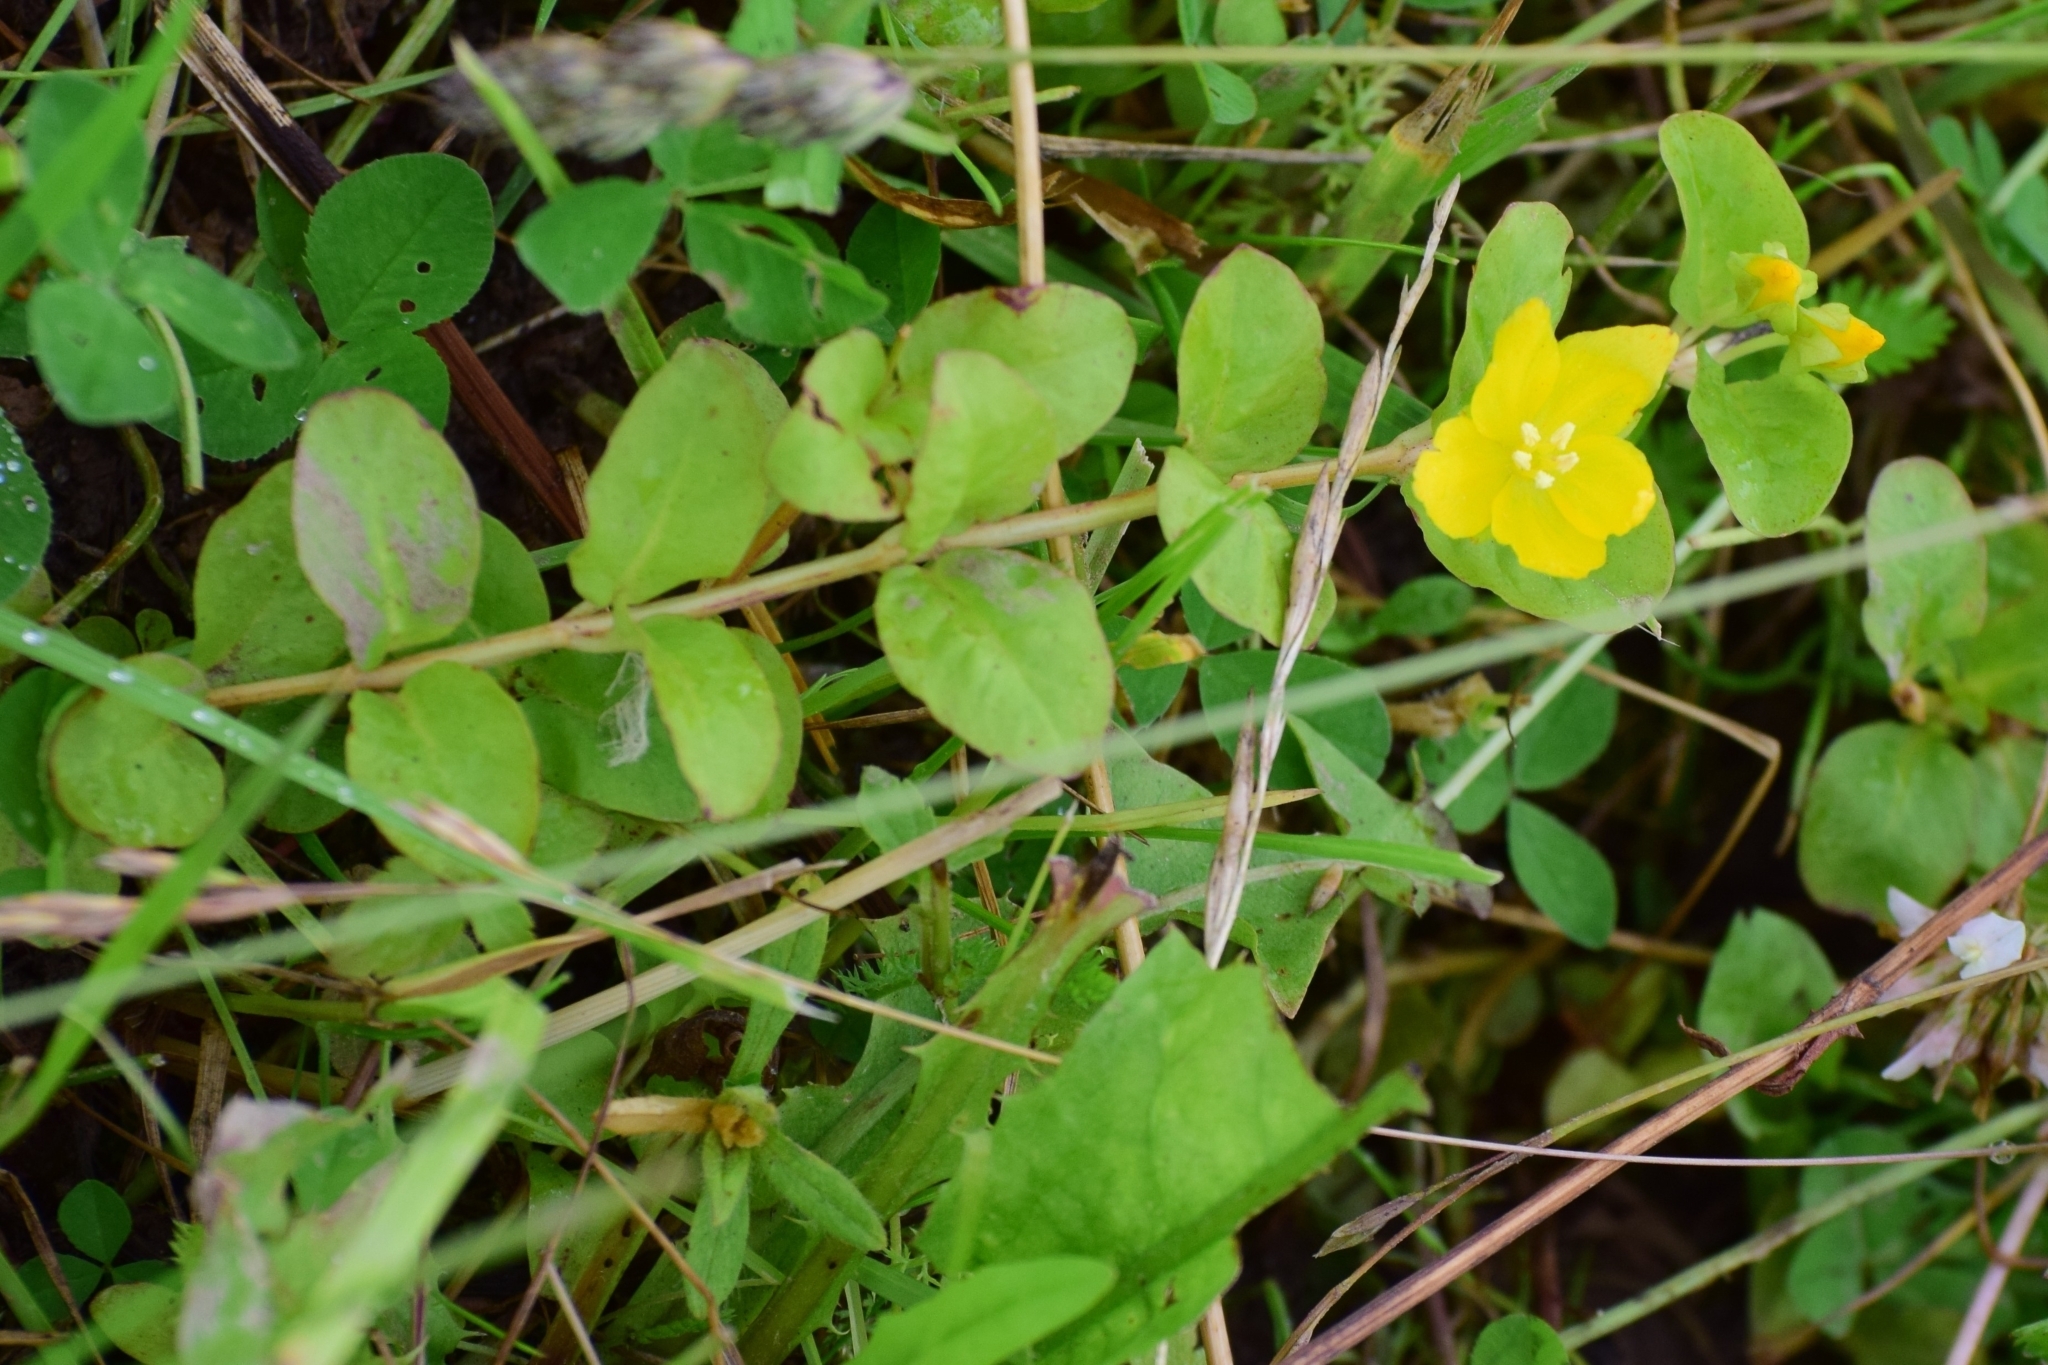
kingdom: Plantae
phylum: Tracheophyta
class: Magnoliopsida
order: Ericales
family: Primulaceae
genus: Lysimachia
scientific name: Lysimachia nummularia
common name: Moneywort
